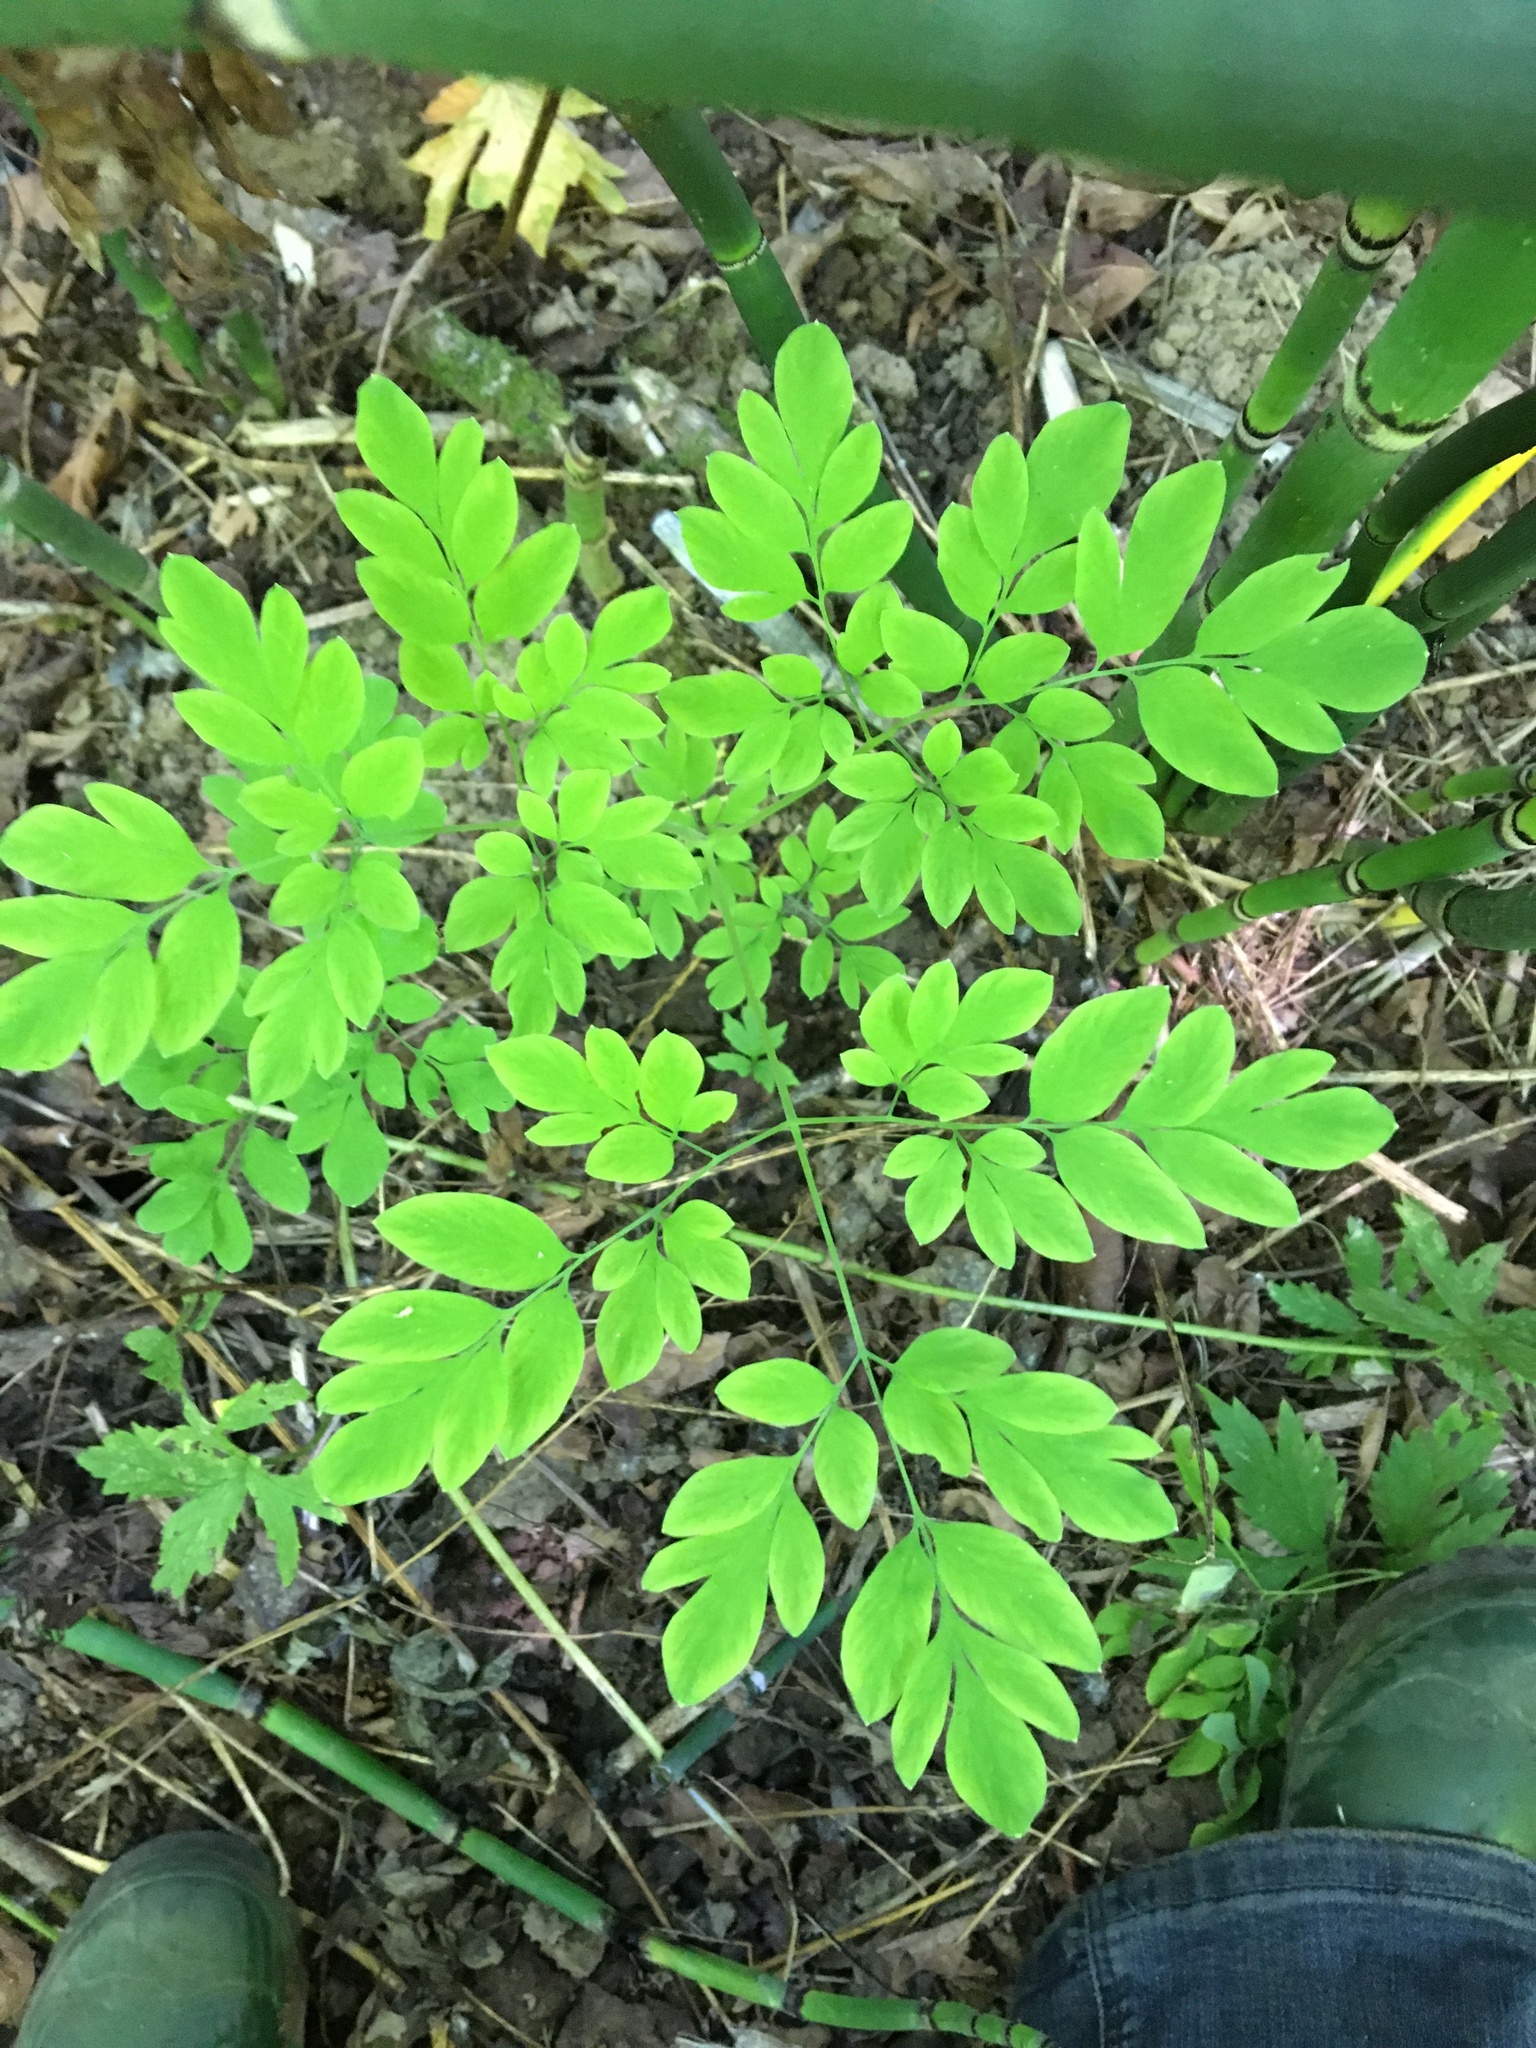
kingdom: Plantae
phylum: Tracheophyta
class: Magnoliopsida
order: Ranunculales
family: Papaveraceae
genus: Corydalis
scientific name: Corydalis scouleri
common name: Scouler's corydalis
